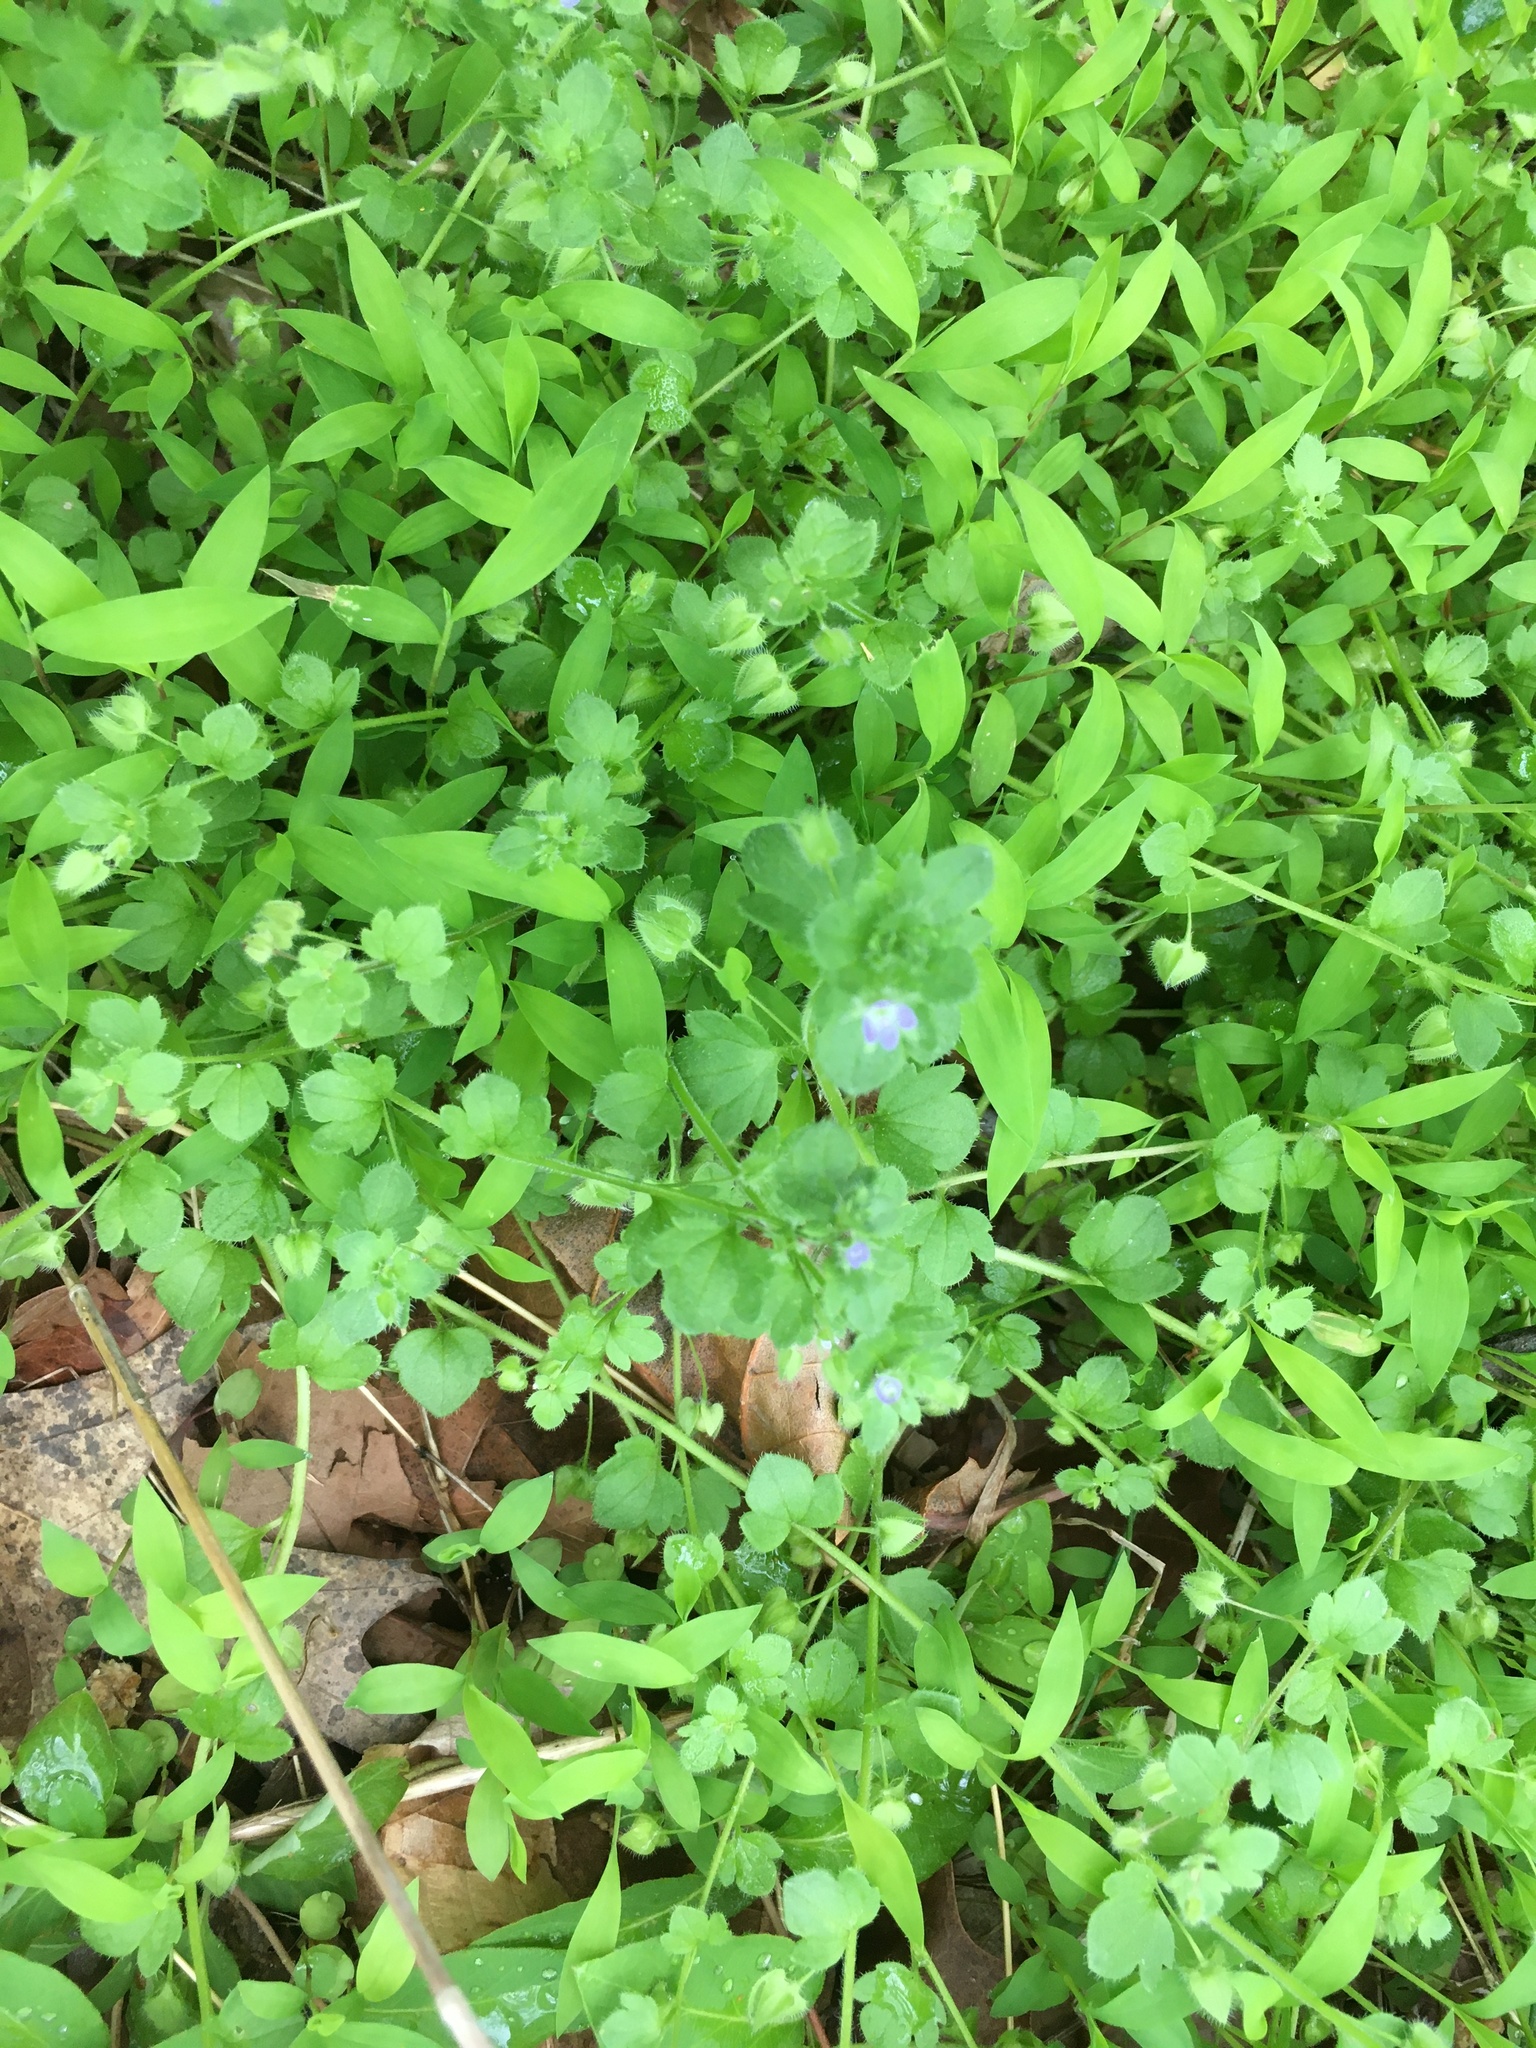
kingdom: Plantae
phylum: Tracheophyta
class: Magnoliopsida
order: Lamiales
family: Plantaginaceae
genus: Veronica
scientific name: Veronica hederifolia
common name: Ivy-leaved speedwell
